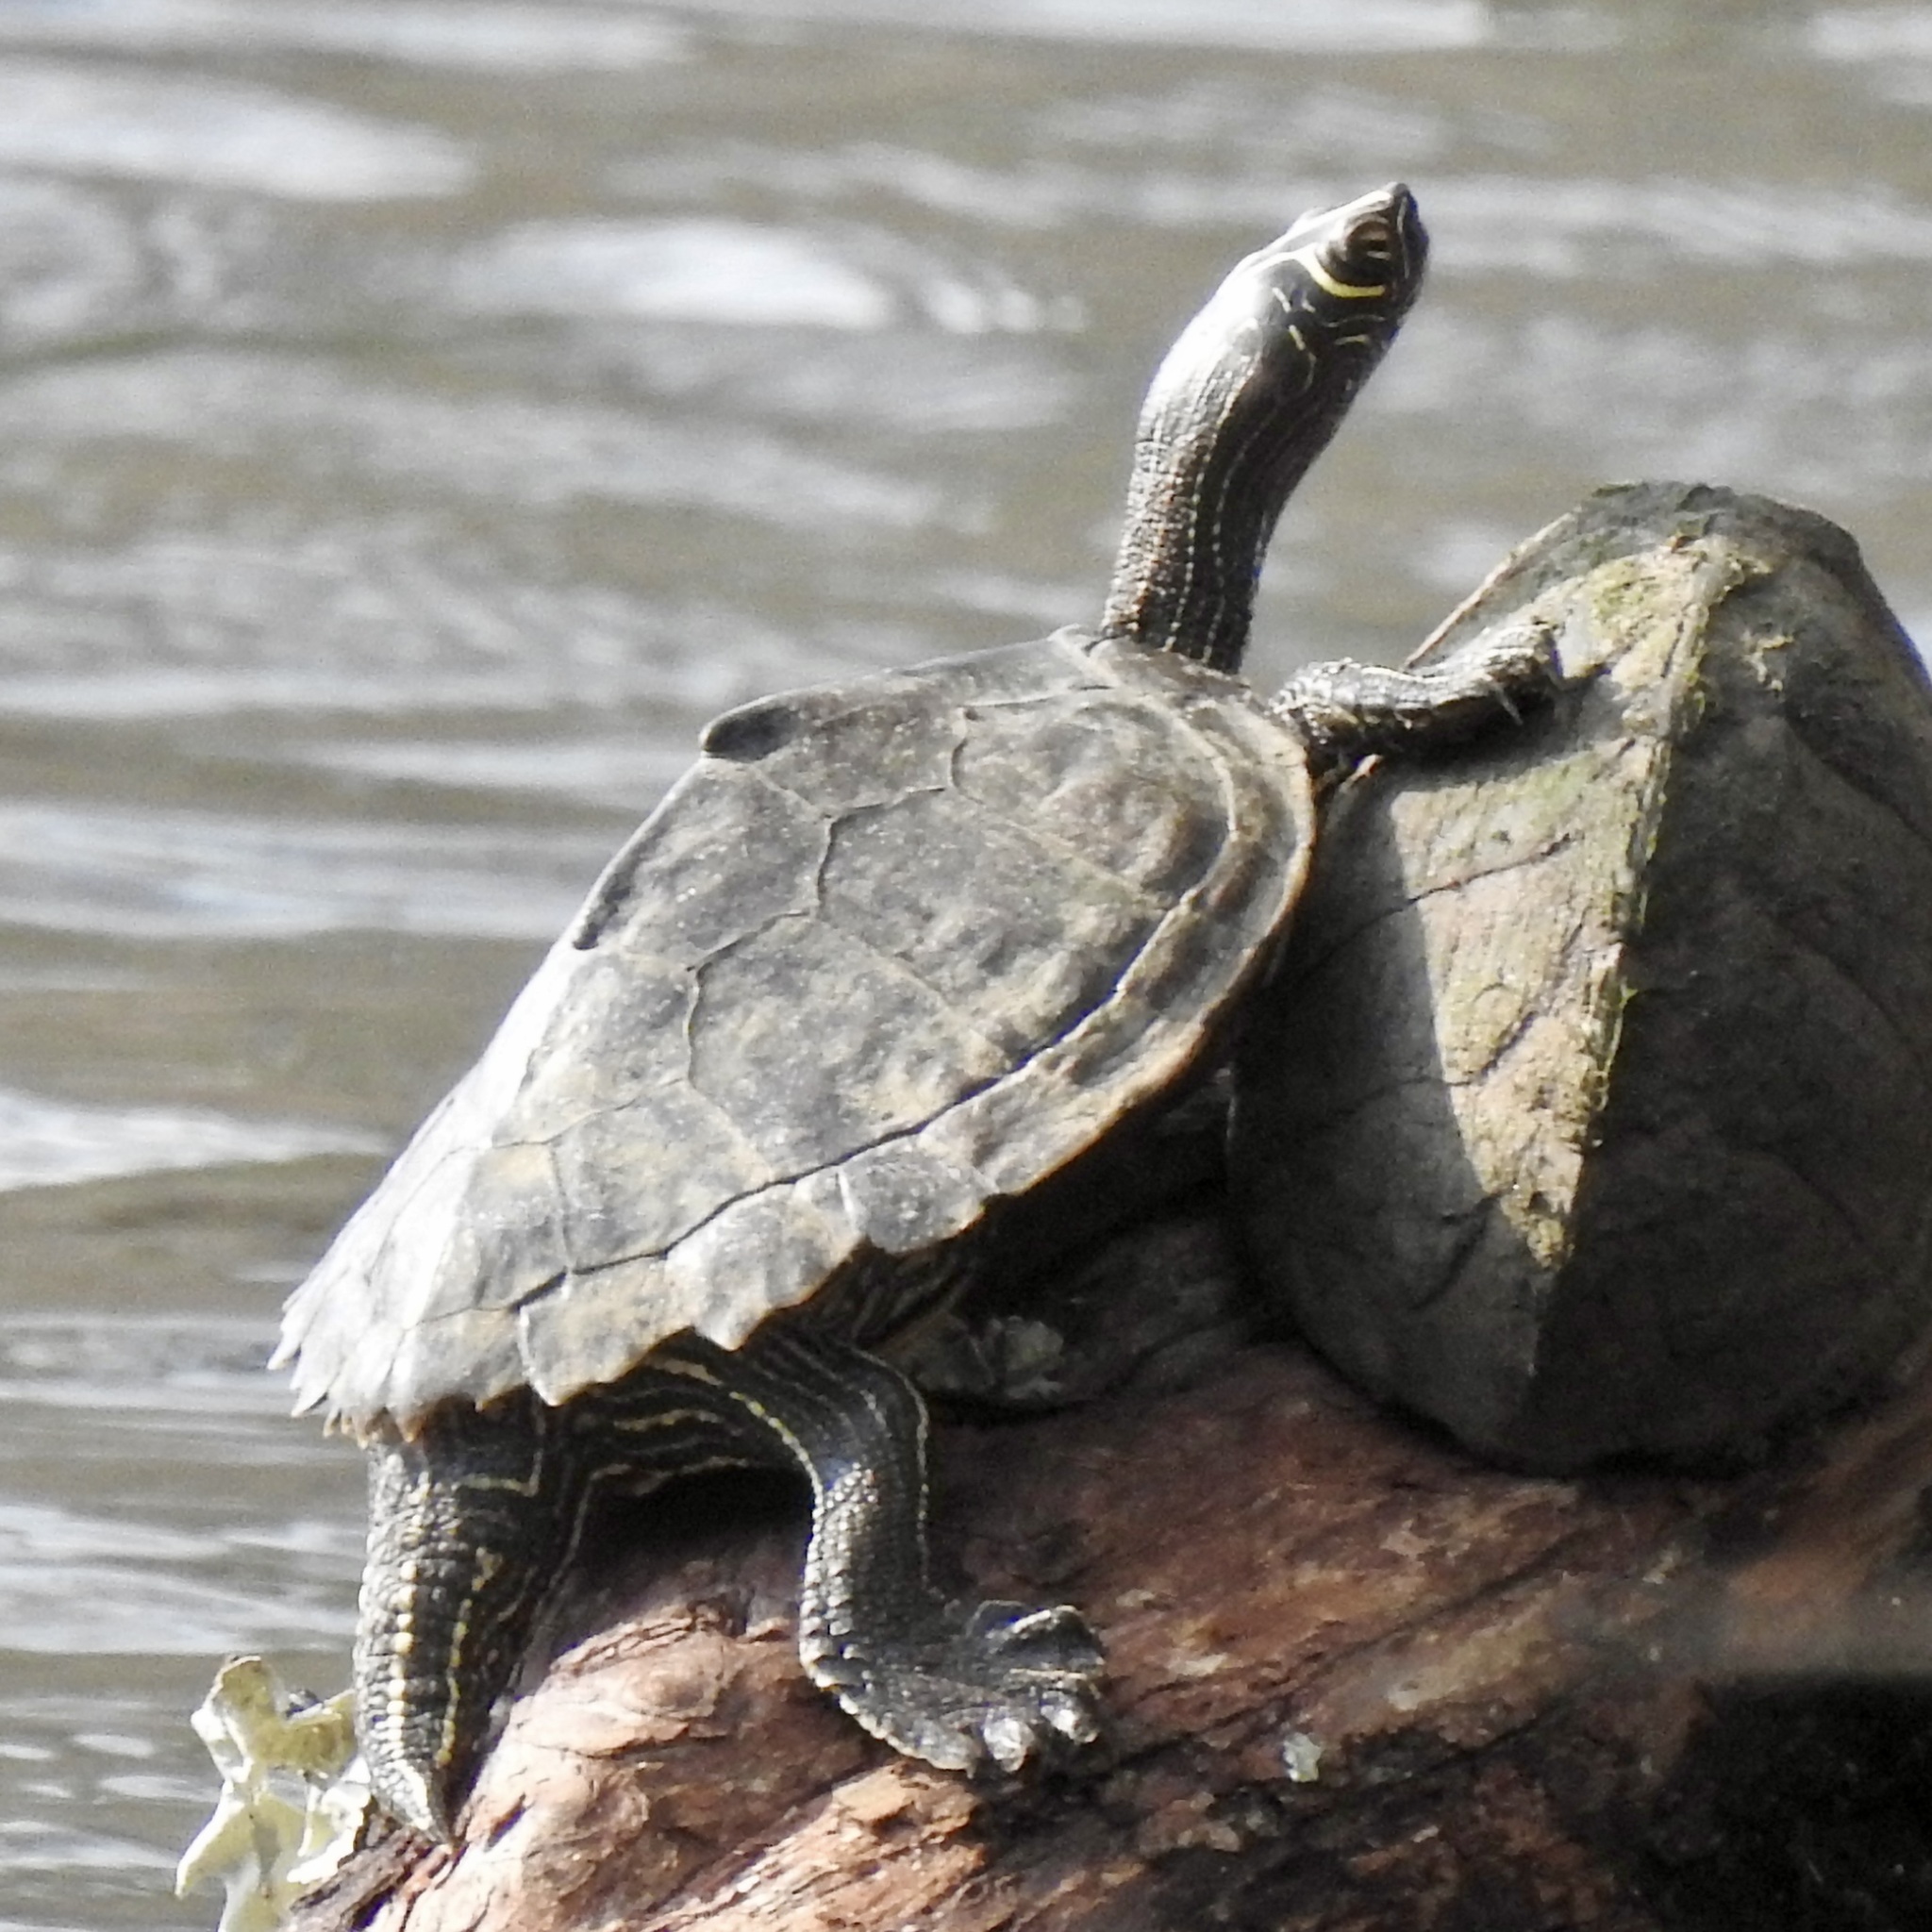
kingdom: Animalia
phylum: Chordata
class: Testudines
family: Emydidae
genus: Graptemys
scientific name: Graptemys pseudogeographica
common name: False map turtle
